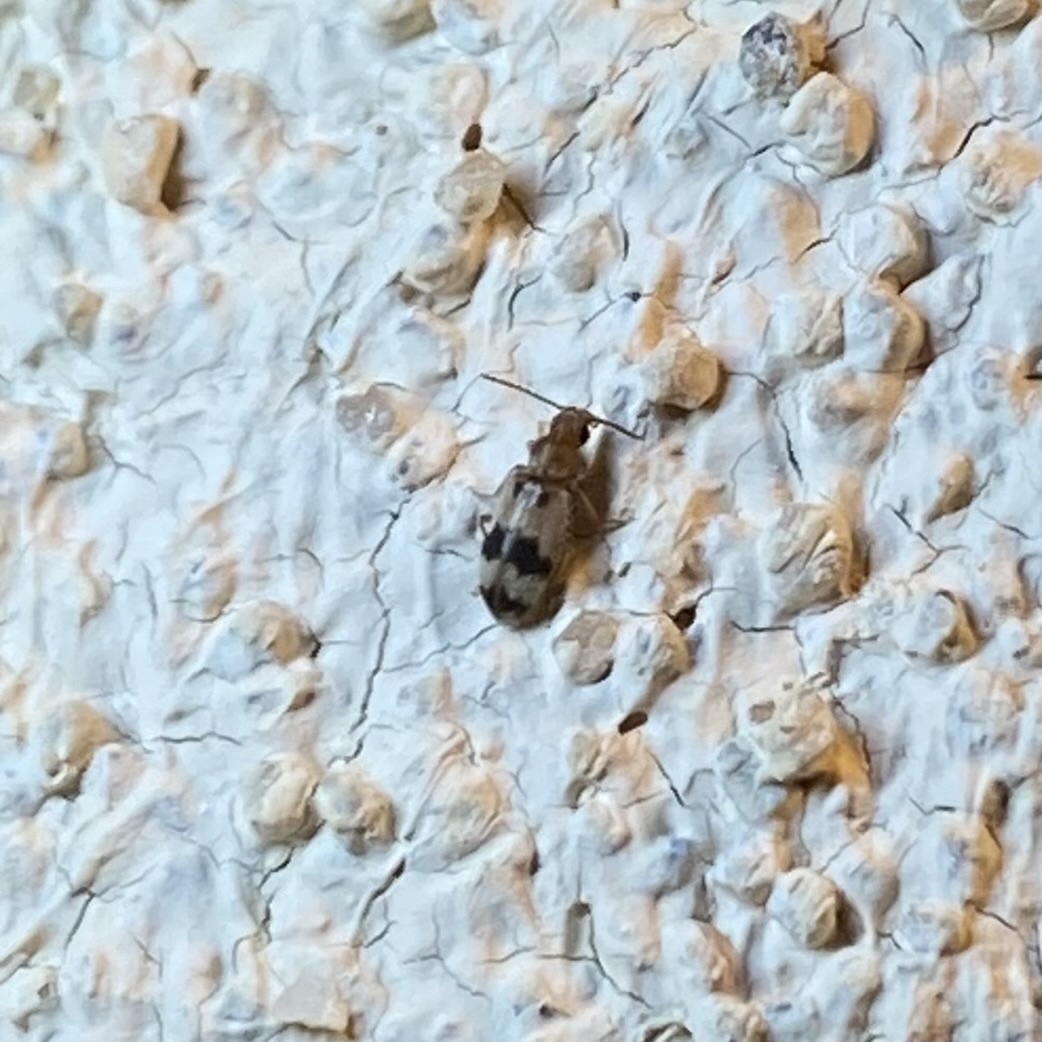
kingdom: Animalia
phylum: Arthropoda
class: Insecta
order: Coleoptera
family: Anthicidae
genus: Notoxus
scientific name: Notoxus
